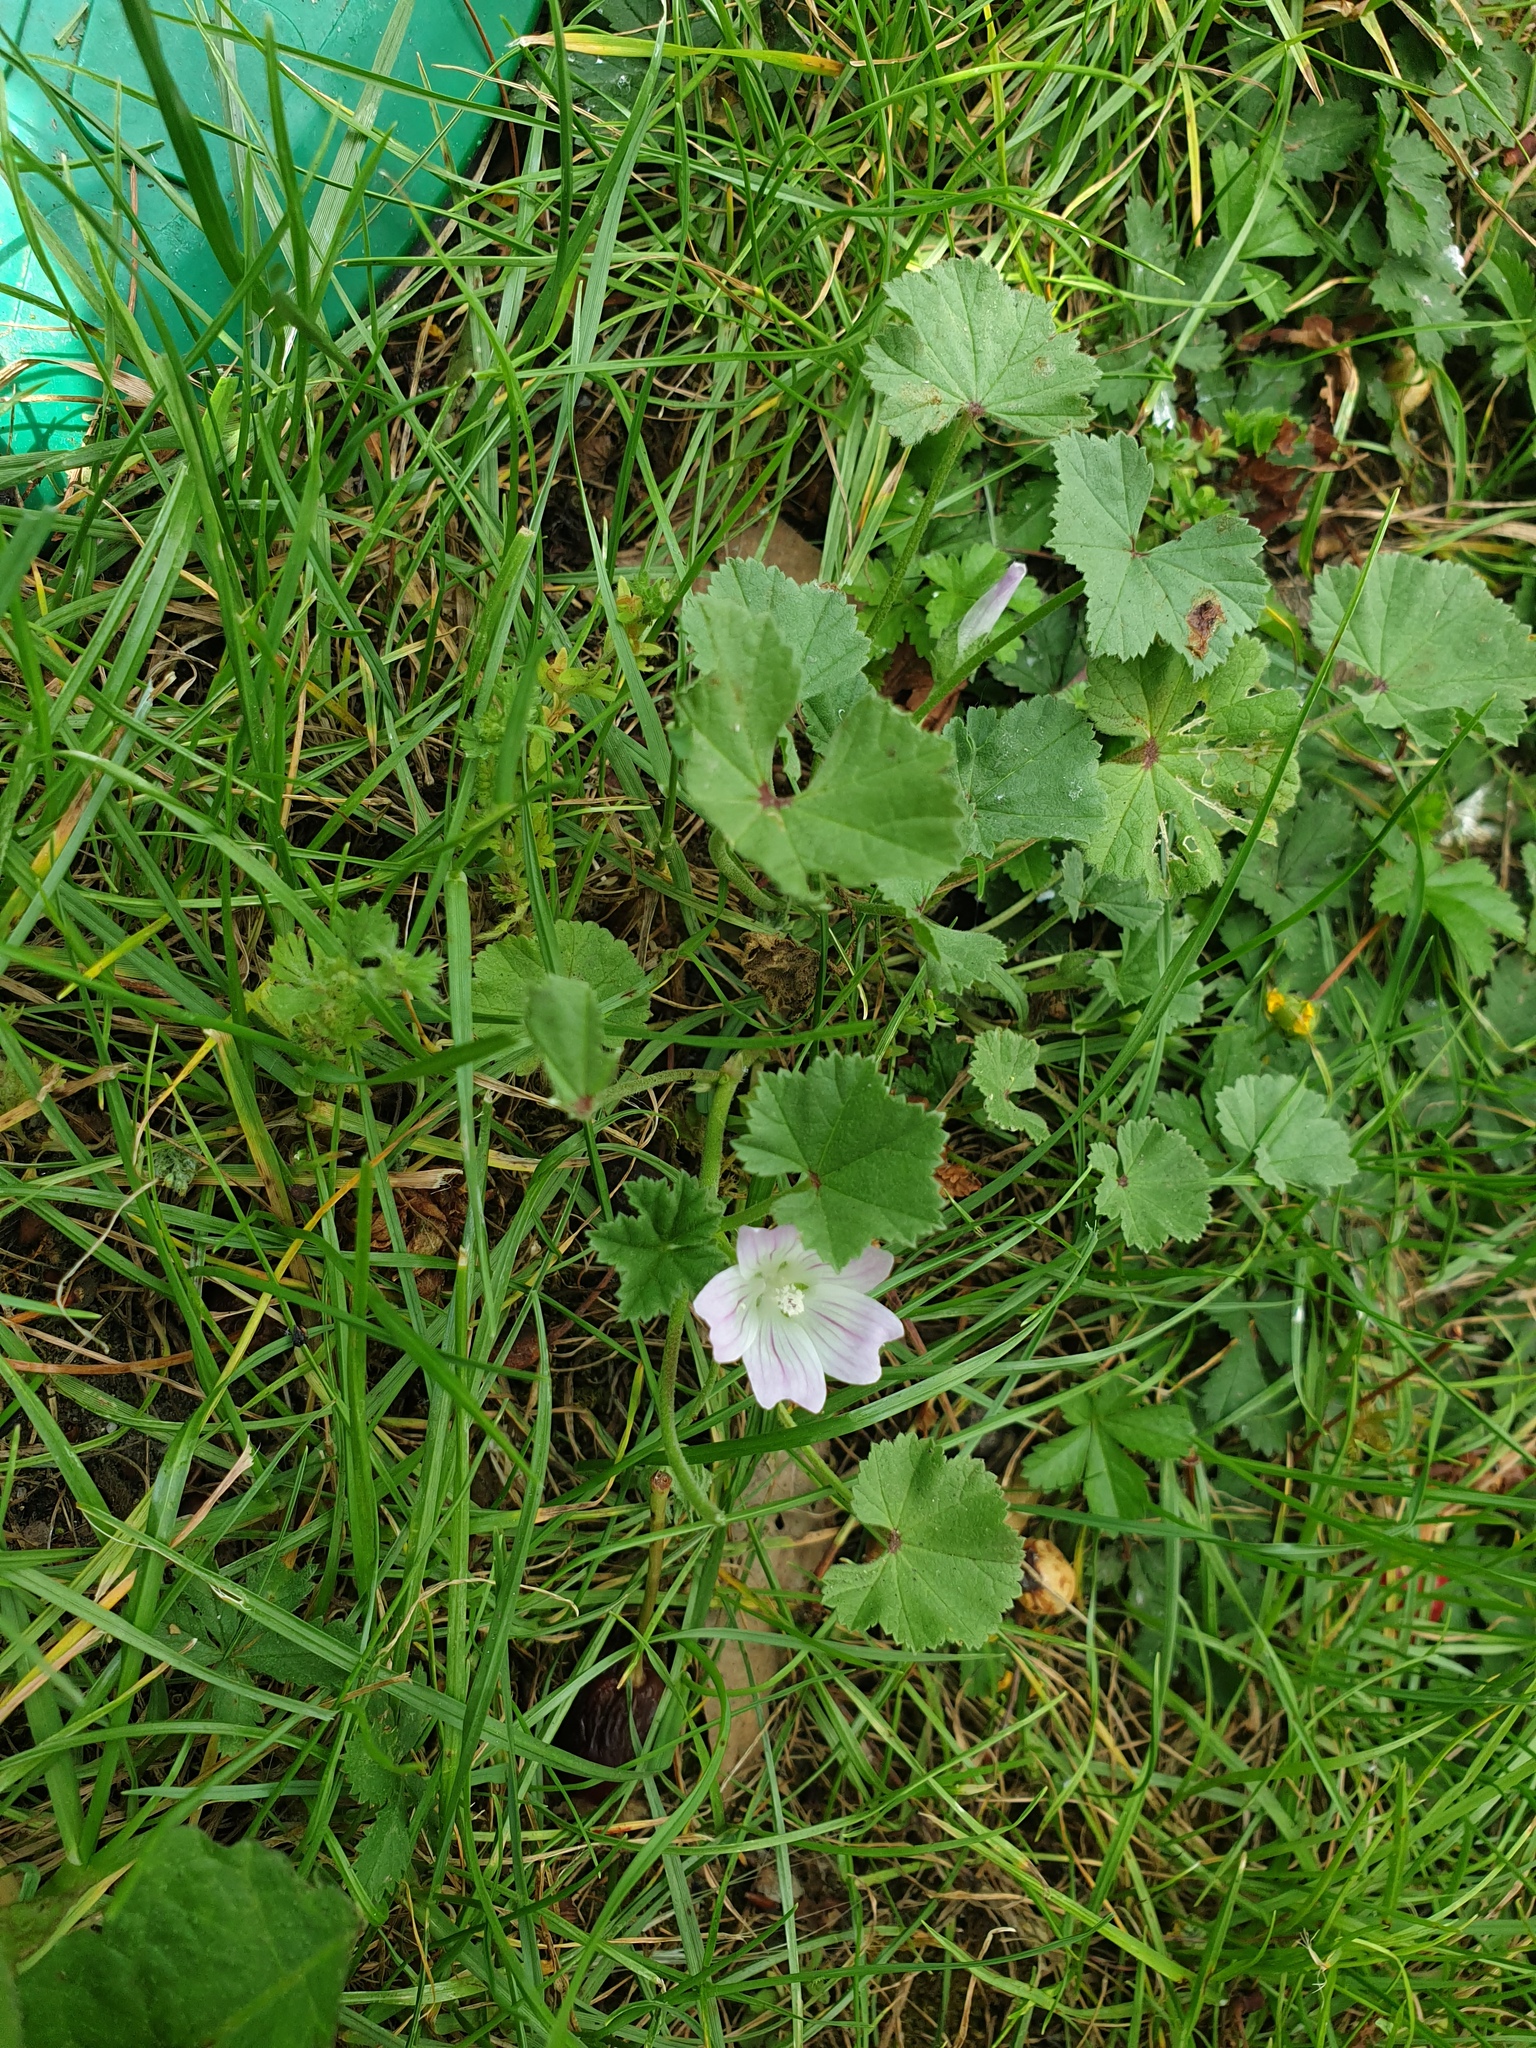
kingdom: Plantae
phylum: Tracheophyta
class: Magnoliopsida
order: Malvales
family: Malvaceae
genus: Malva
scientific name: Malva neglecta
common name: Common mallow
